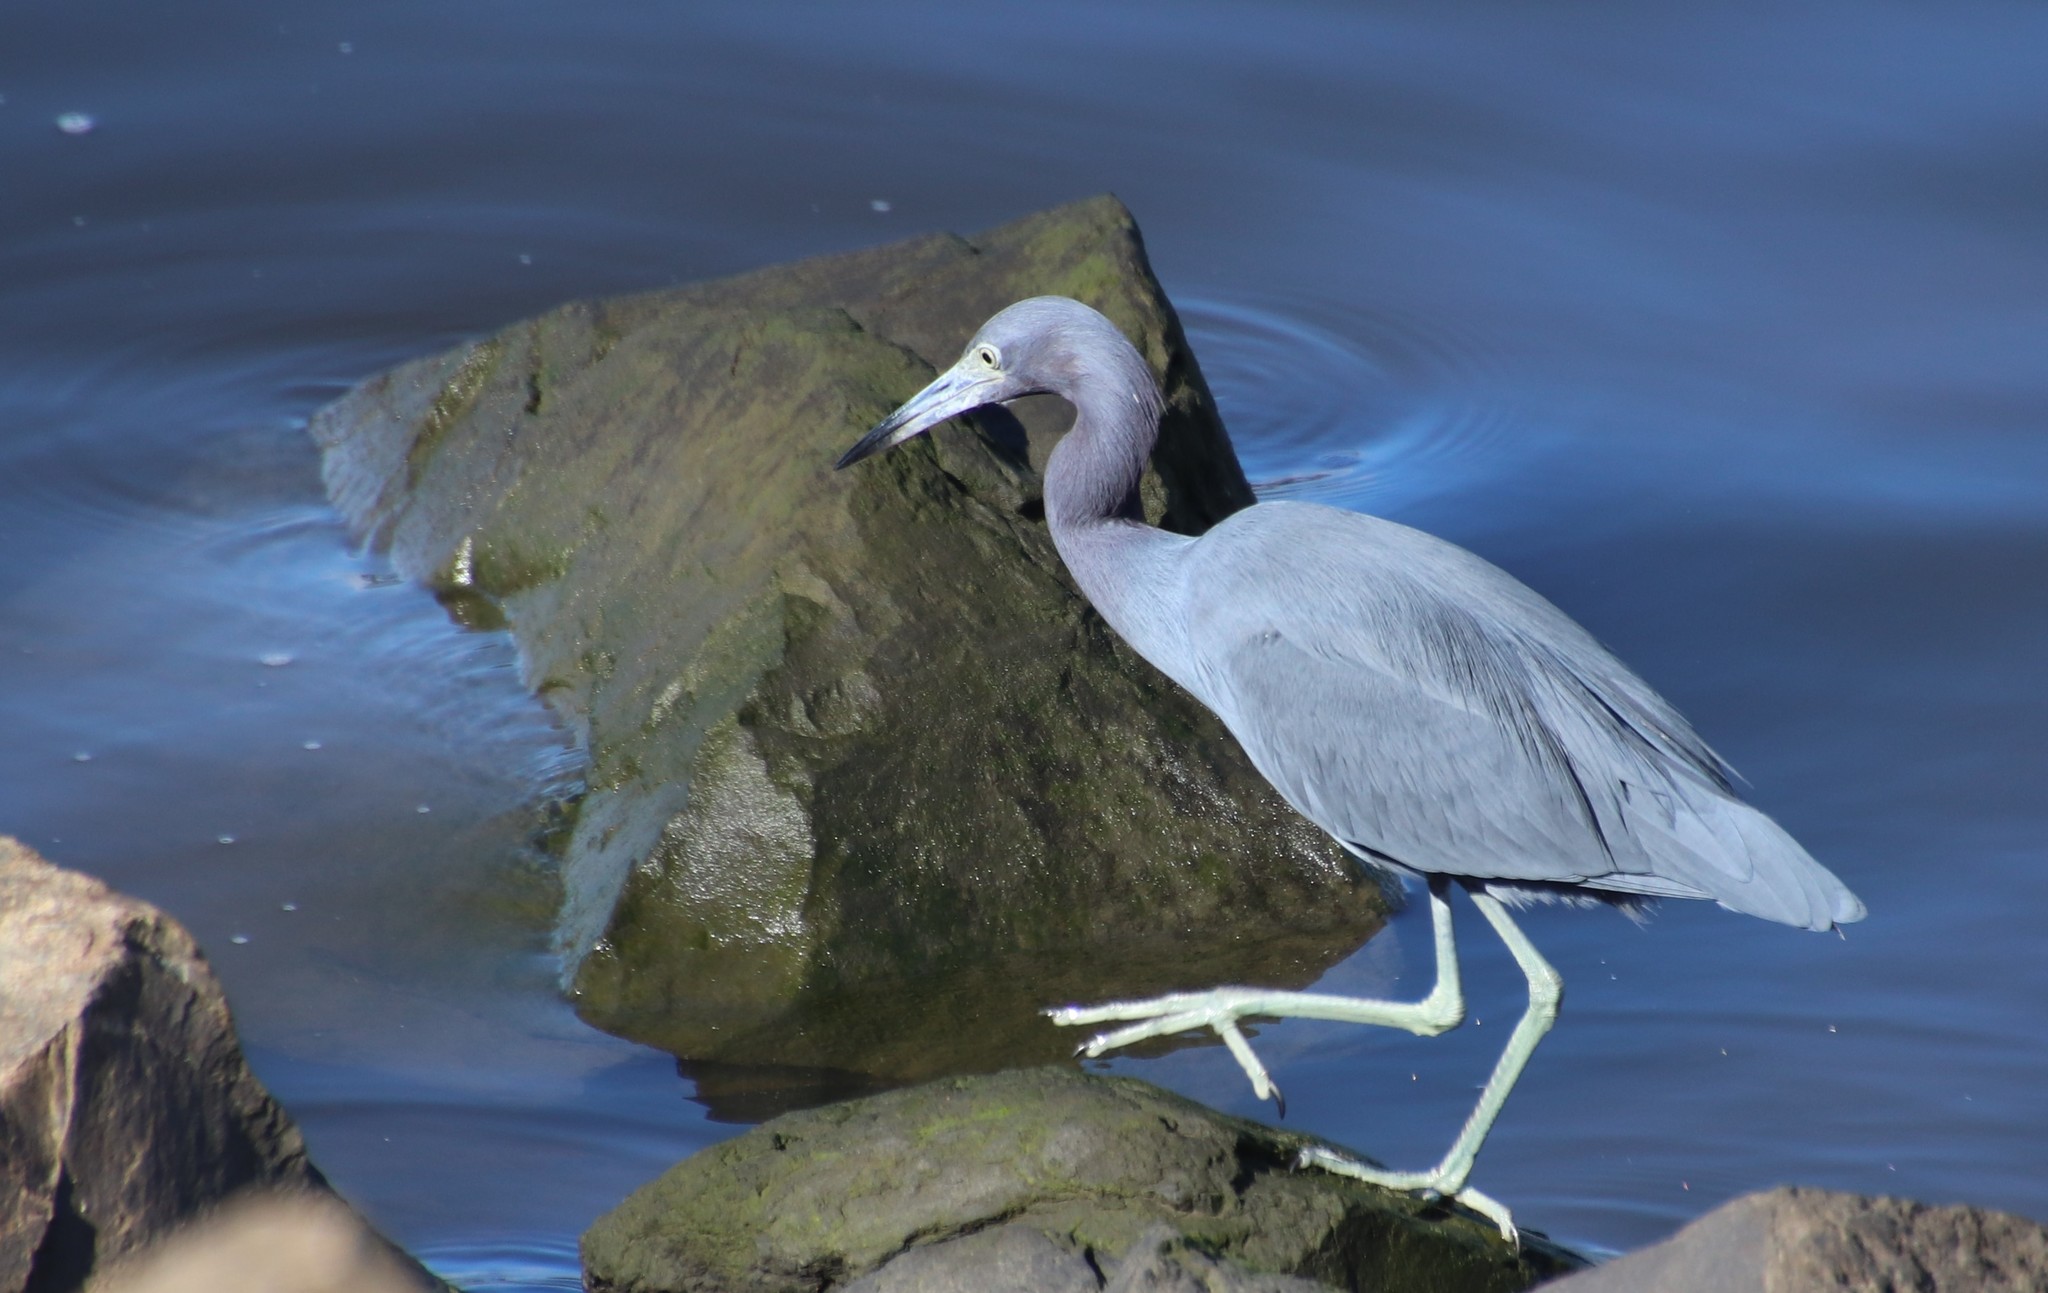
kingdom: Animalia
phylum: Chordata
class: Aves
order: Pelecaniformes
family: Ardeidae
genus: Egretta
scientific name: Egretta caerulea
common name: Little blue heron
